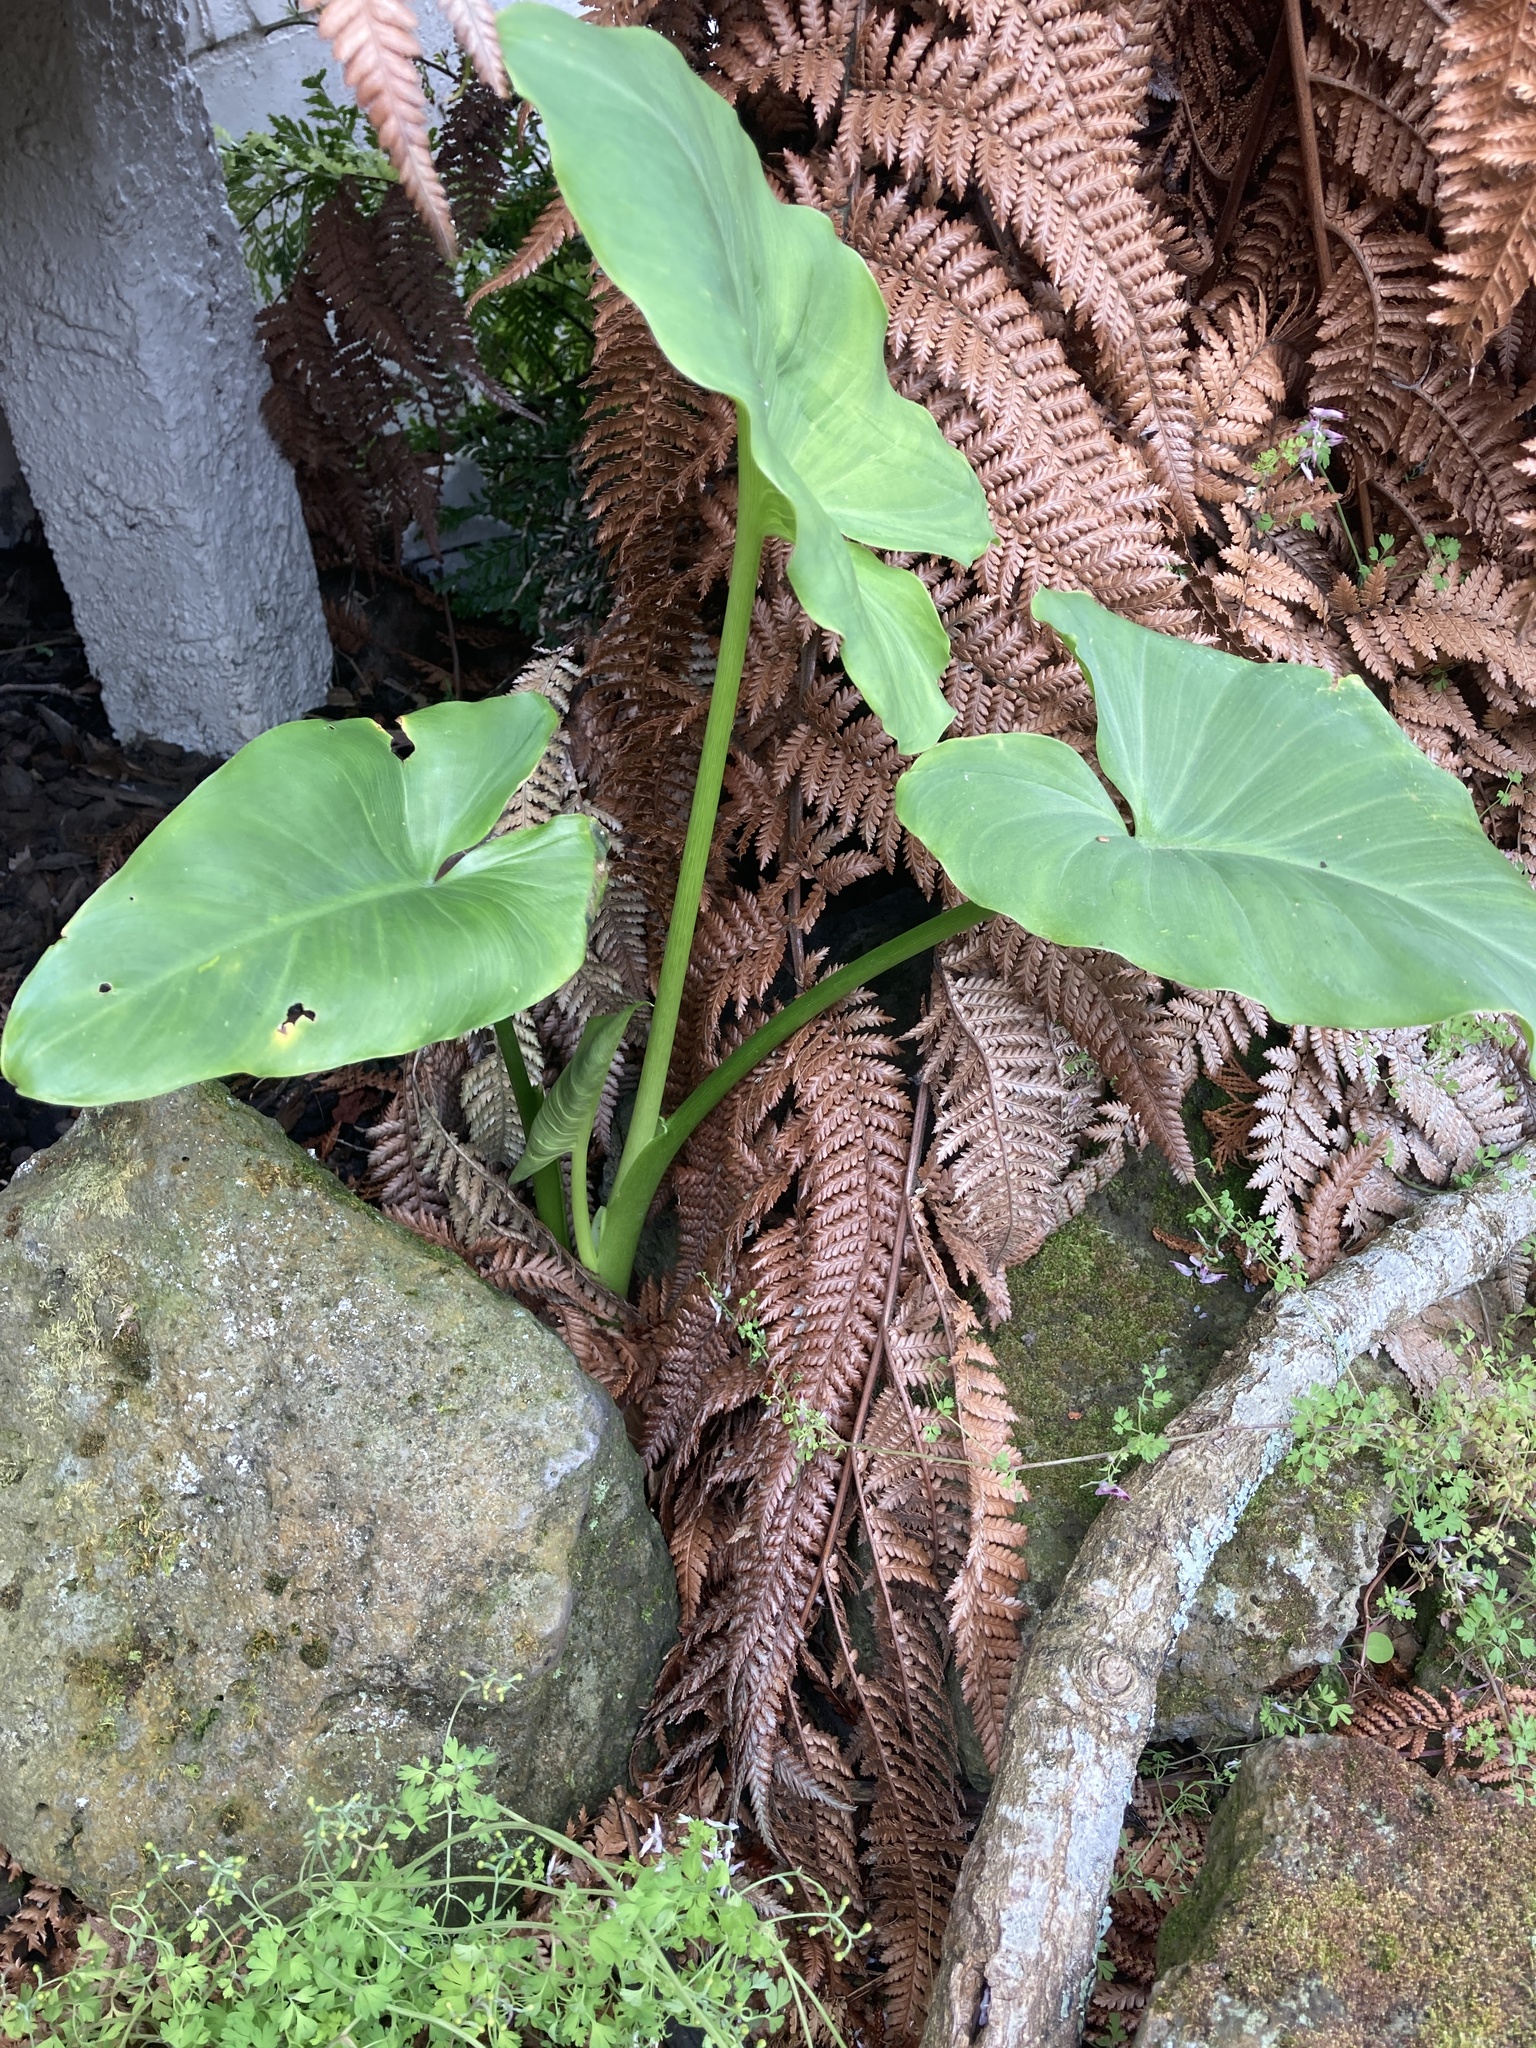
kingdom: Plantae
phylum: Tracheophyta
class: Liliopsida
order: Alismatales
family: Araceae
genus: Zantedeschia
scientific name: Zantedeschia aethiopica
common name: Altar-lily
